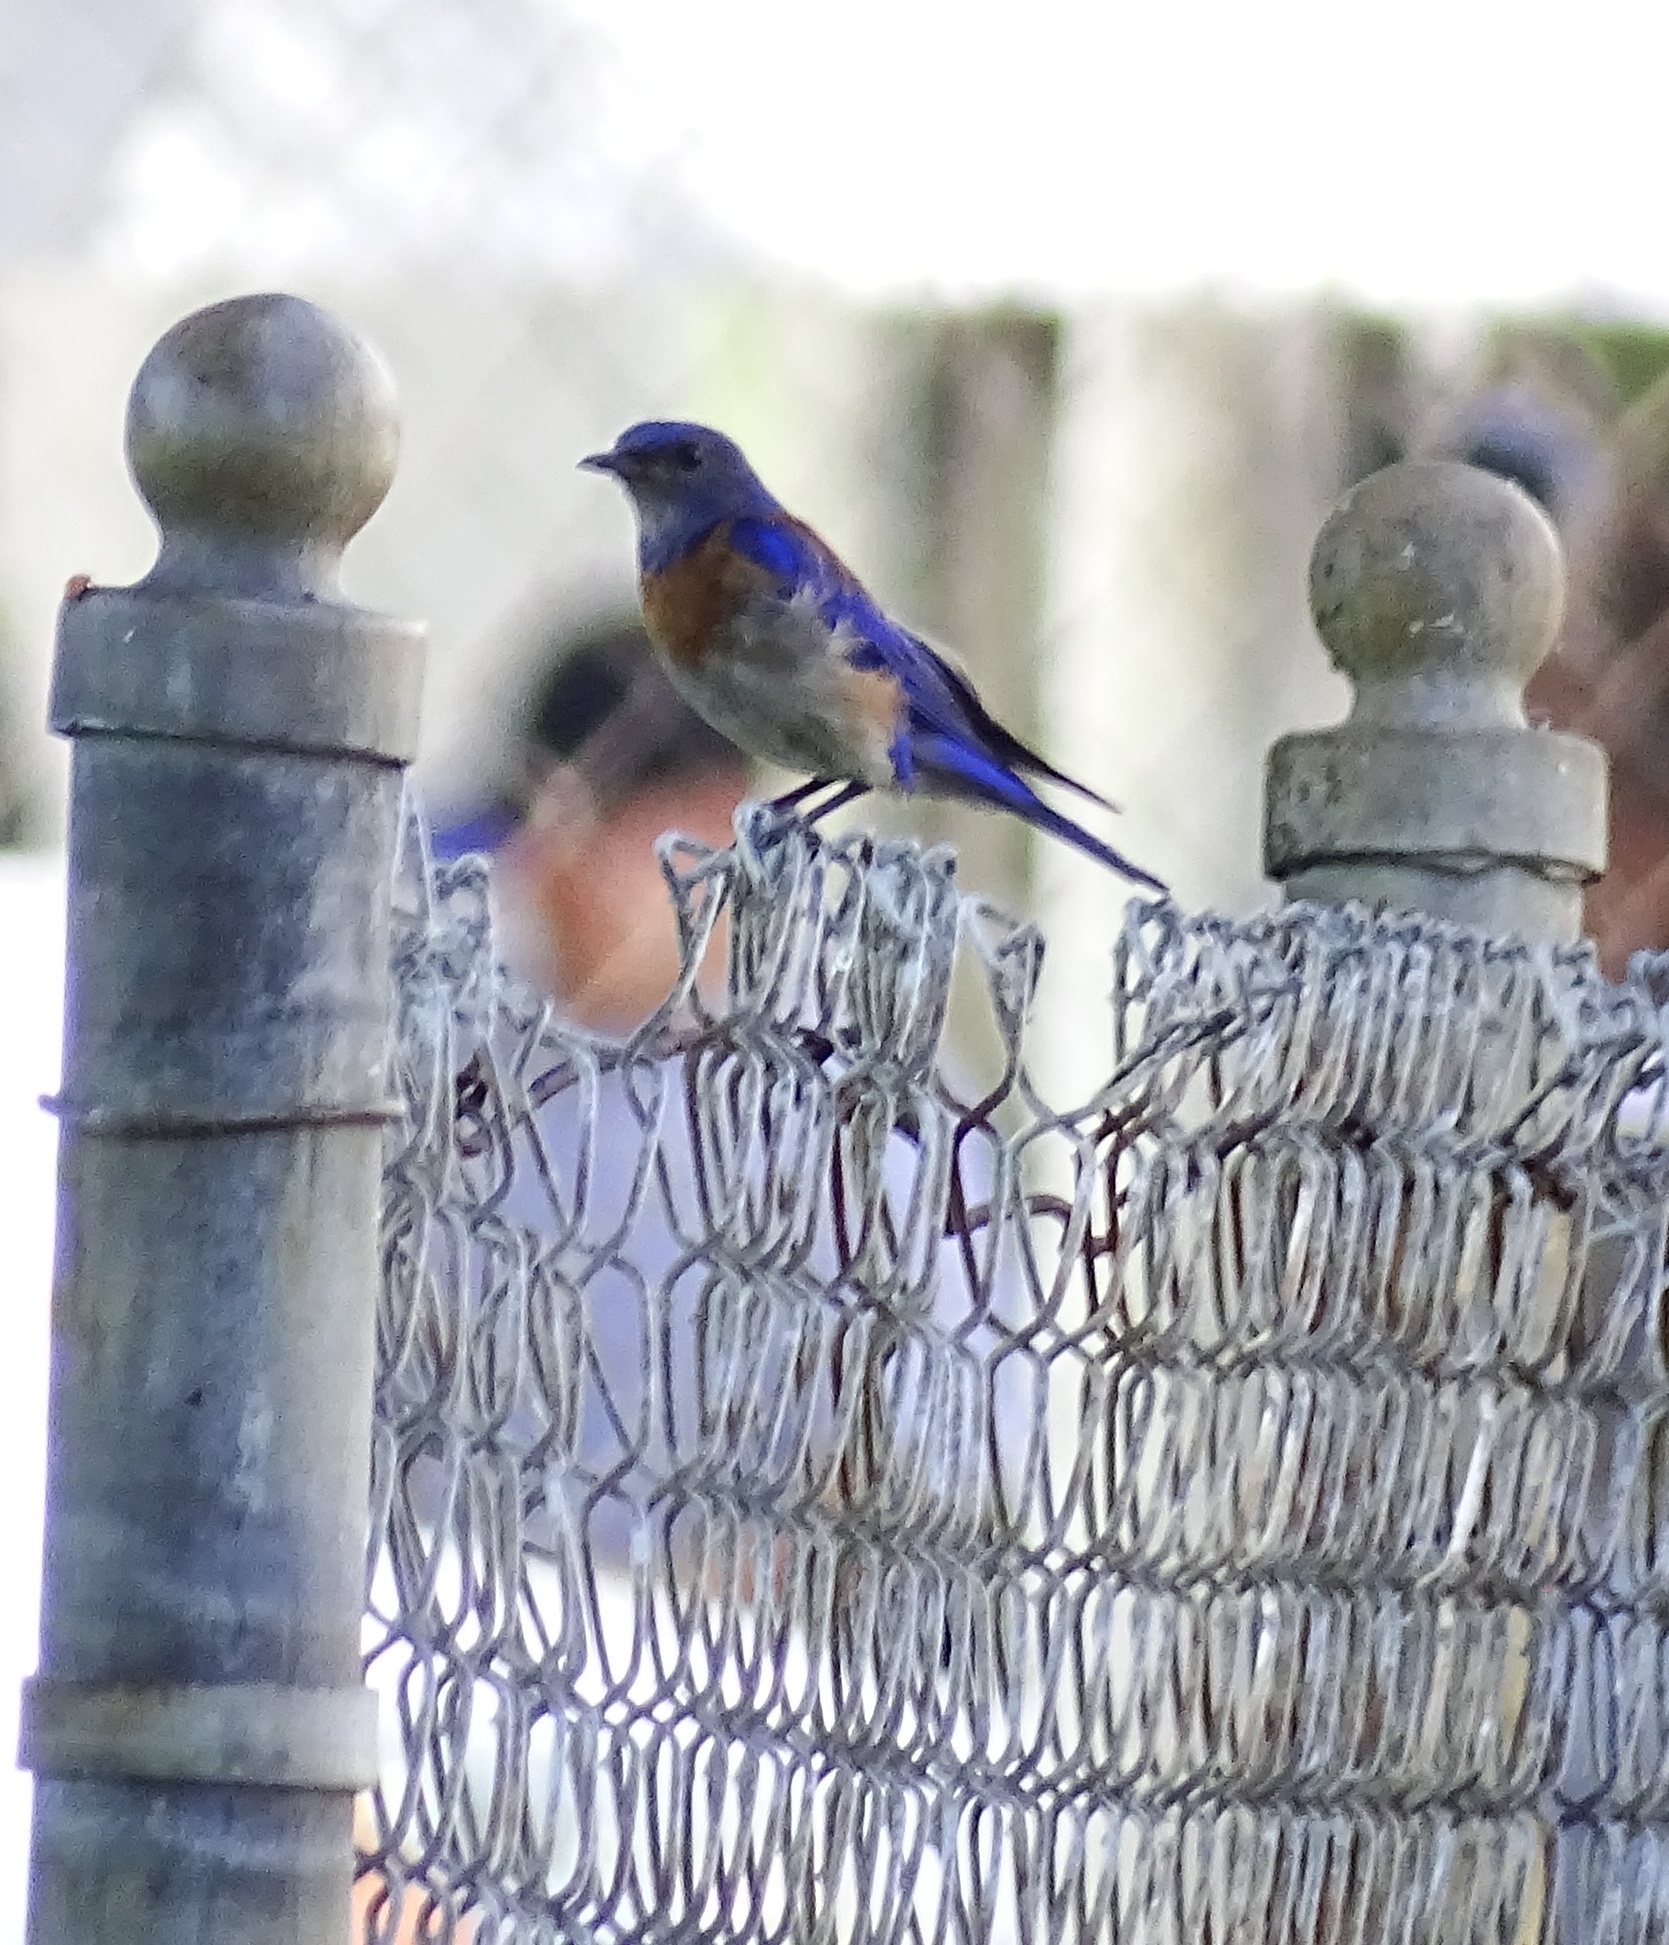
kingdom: Animalia
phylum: Chordata
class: Aves
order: Passeriformes
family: Turdidae
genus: Sialia
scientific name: Sialia mexicana
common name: Western bluebird
